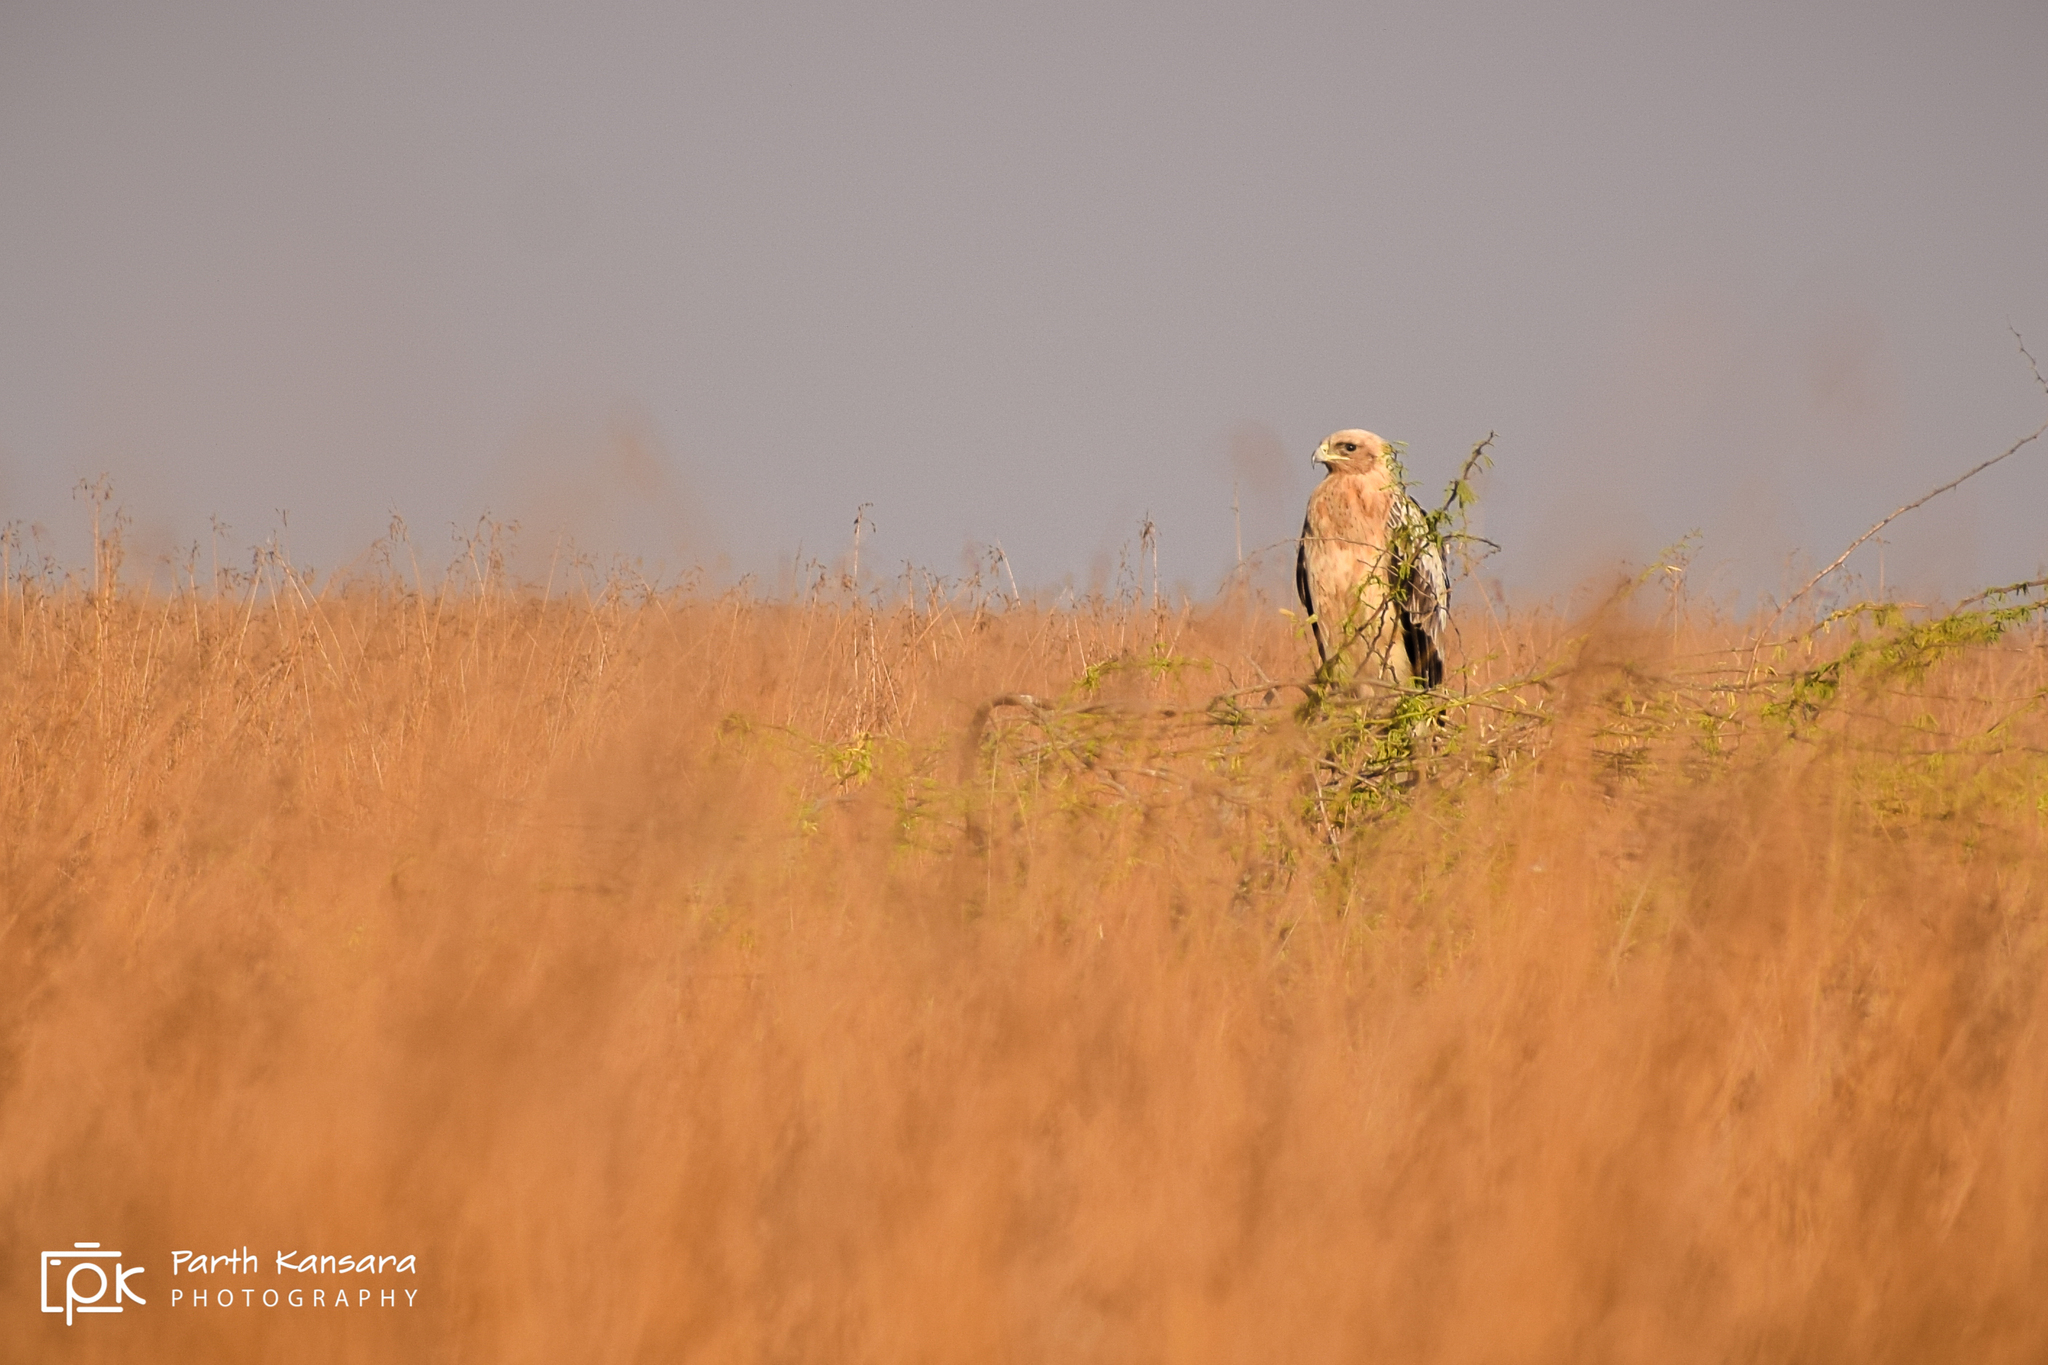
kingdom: Animalia
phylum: Chordata
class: Aves
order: Accipitriformes
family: Accipitridae
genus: Aquila
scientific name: Aquila clanga
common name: Greater spotted eagle
